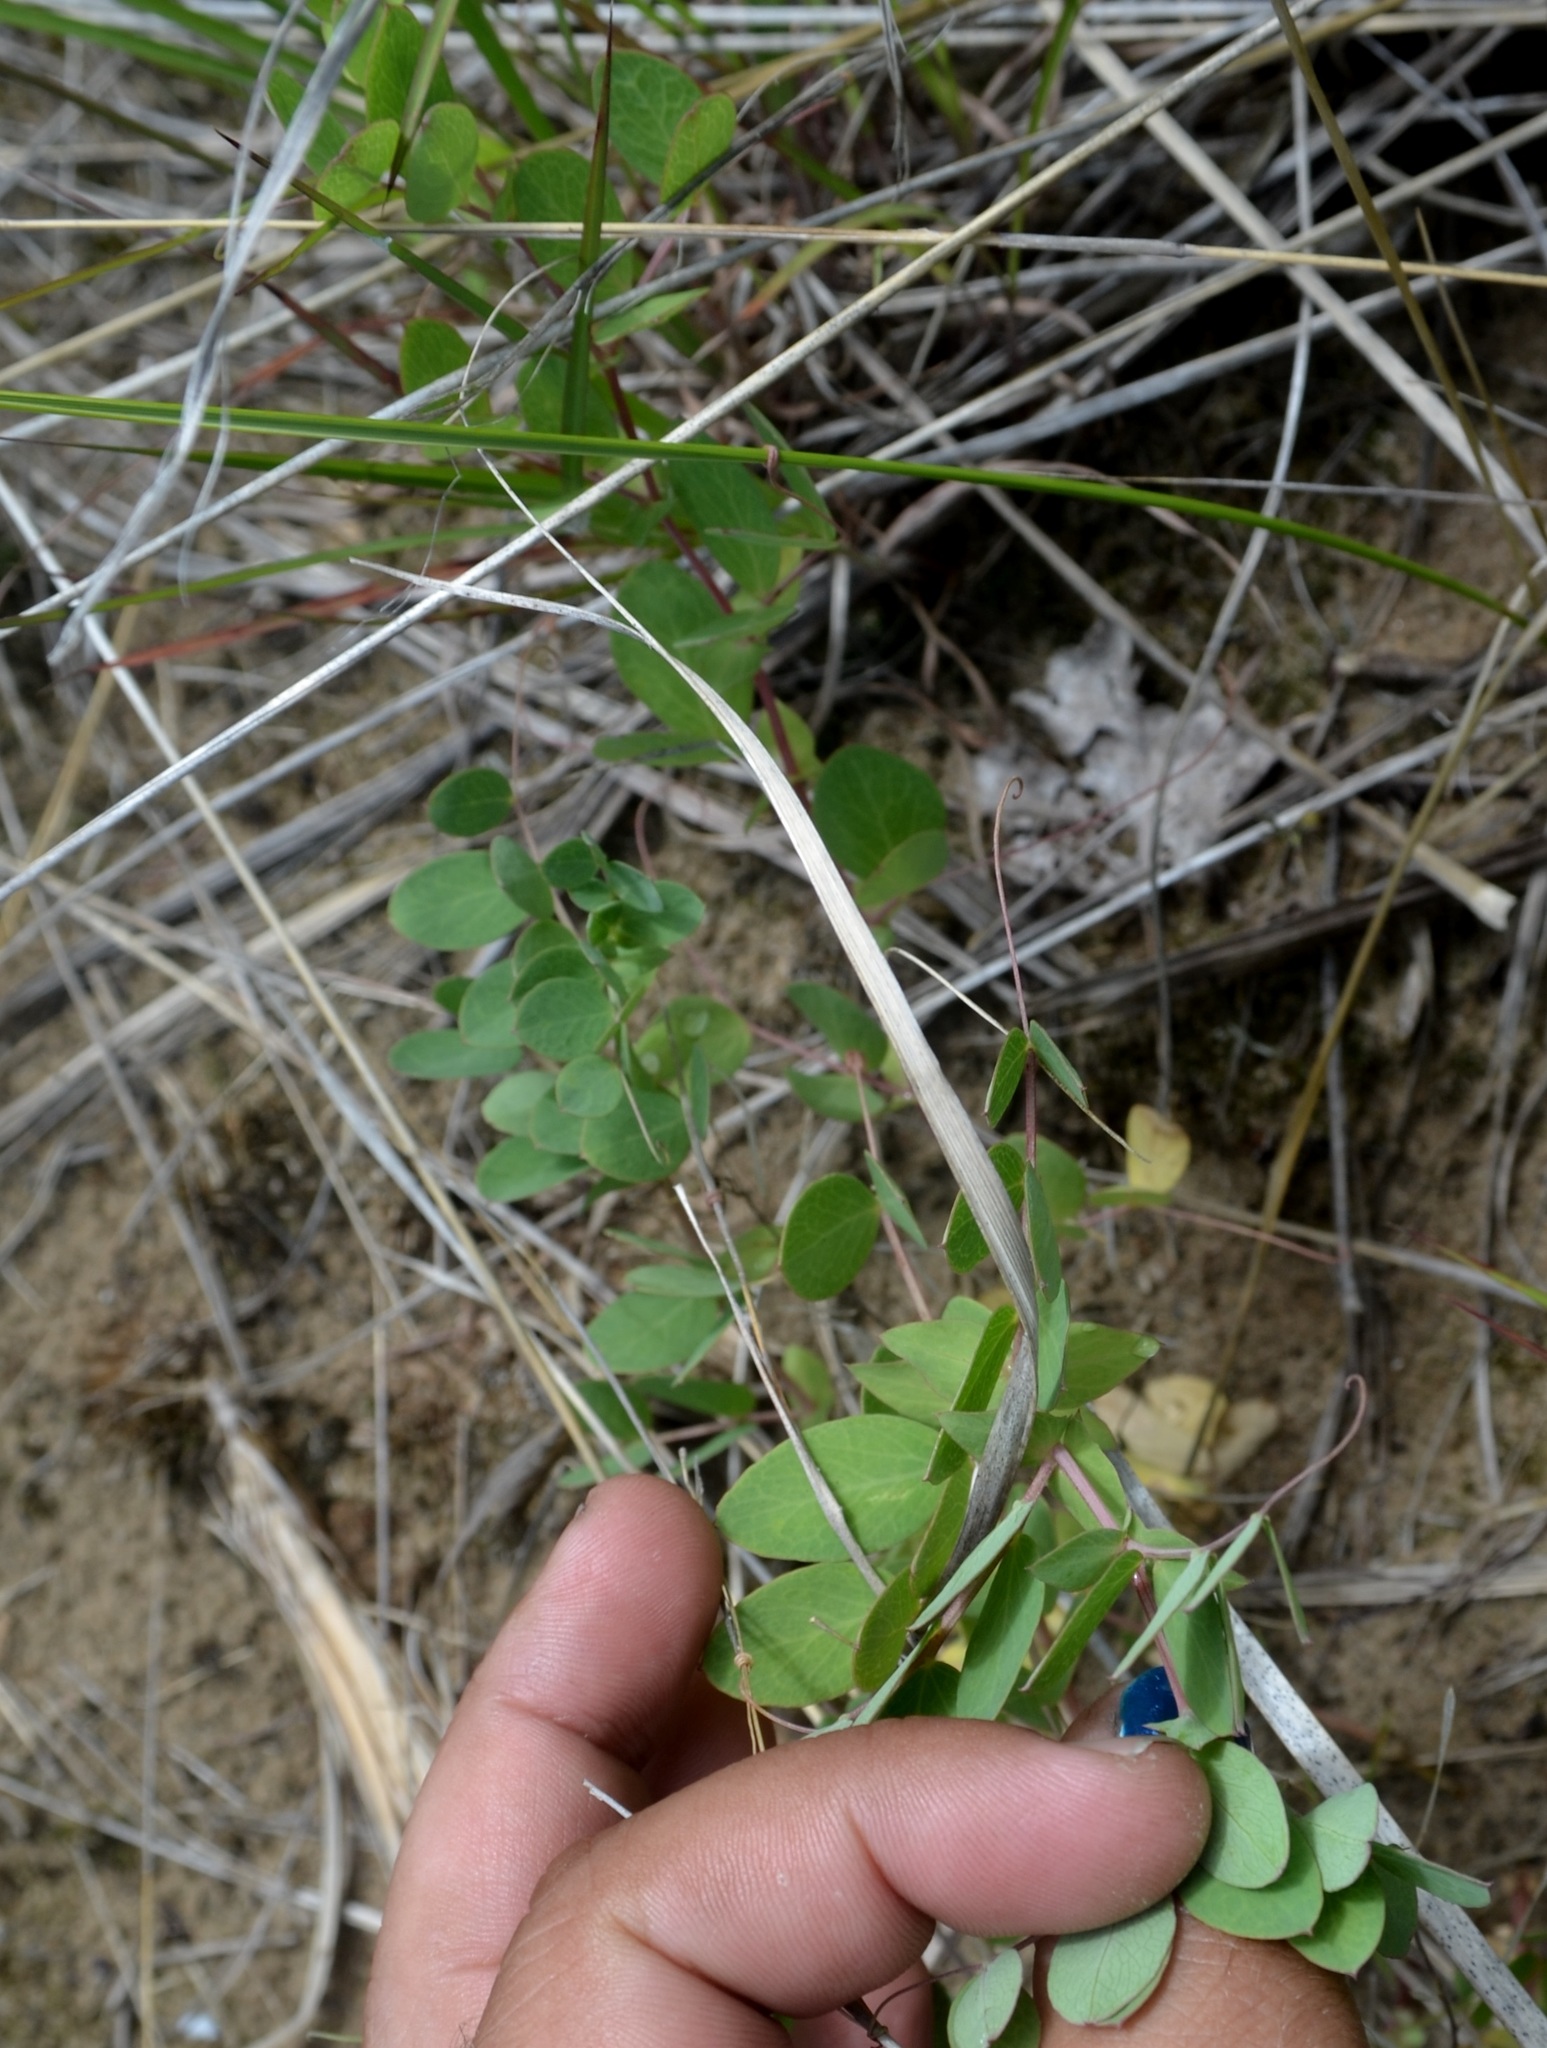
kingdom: Plantae
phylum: Tracheophyta
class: Magnoliopsida
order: Fabales
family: Fabaceae
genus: Lathyrus
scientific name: Lathyrus japonicus
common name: Sea pea
